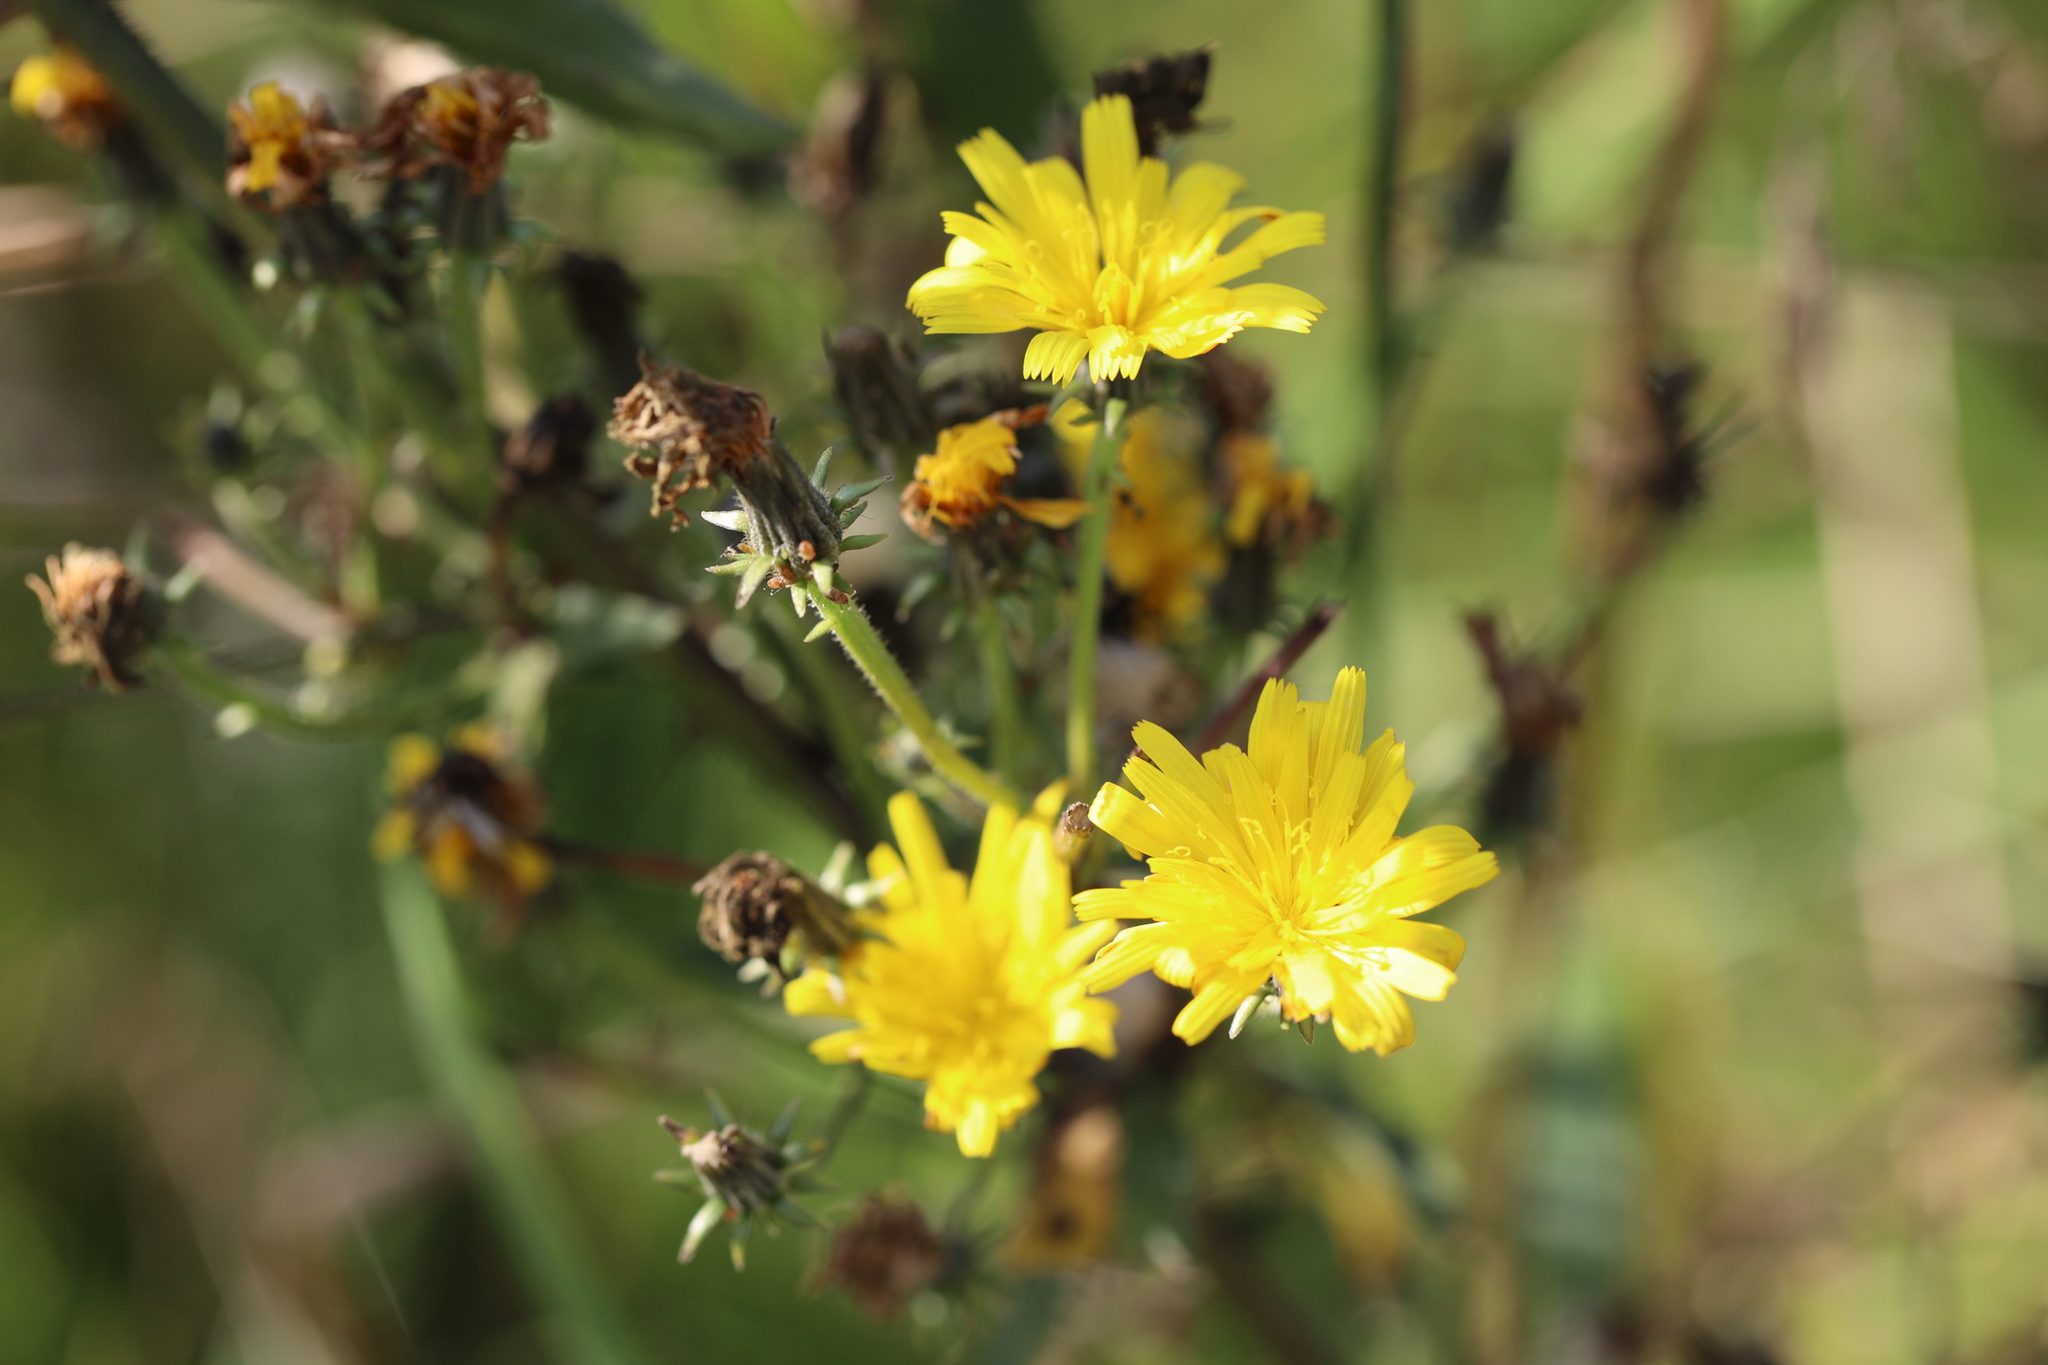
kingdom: Plantae
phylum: Tracheophyta
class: Magnoliopsida
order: Asterales
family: Asteraceae
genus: Picris
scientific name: Picris hieracioides
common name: Hawkweed oxtongue
